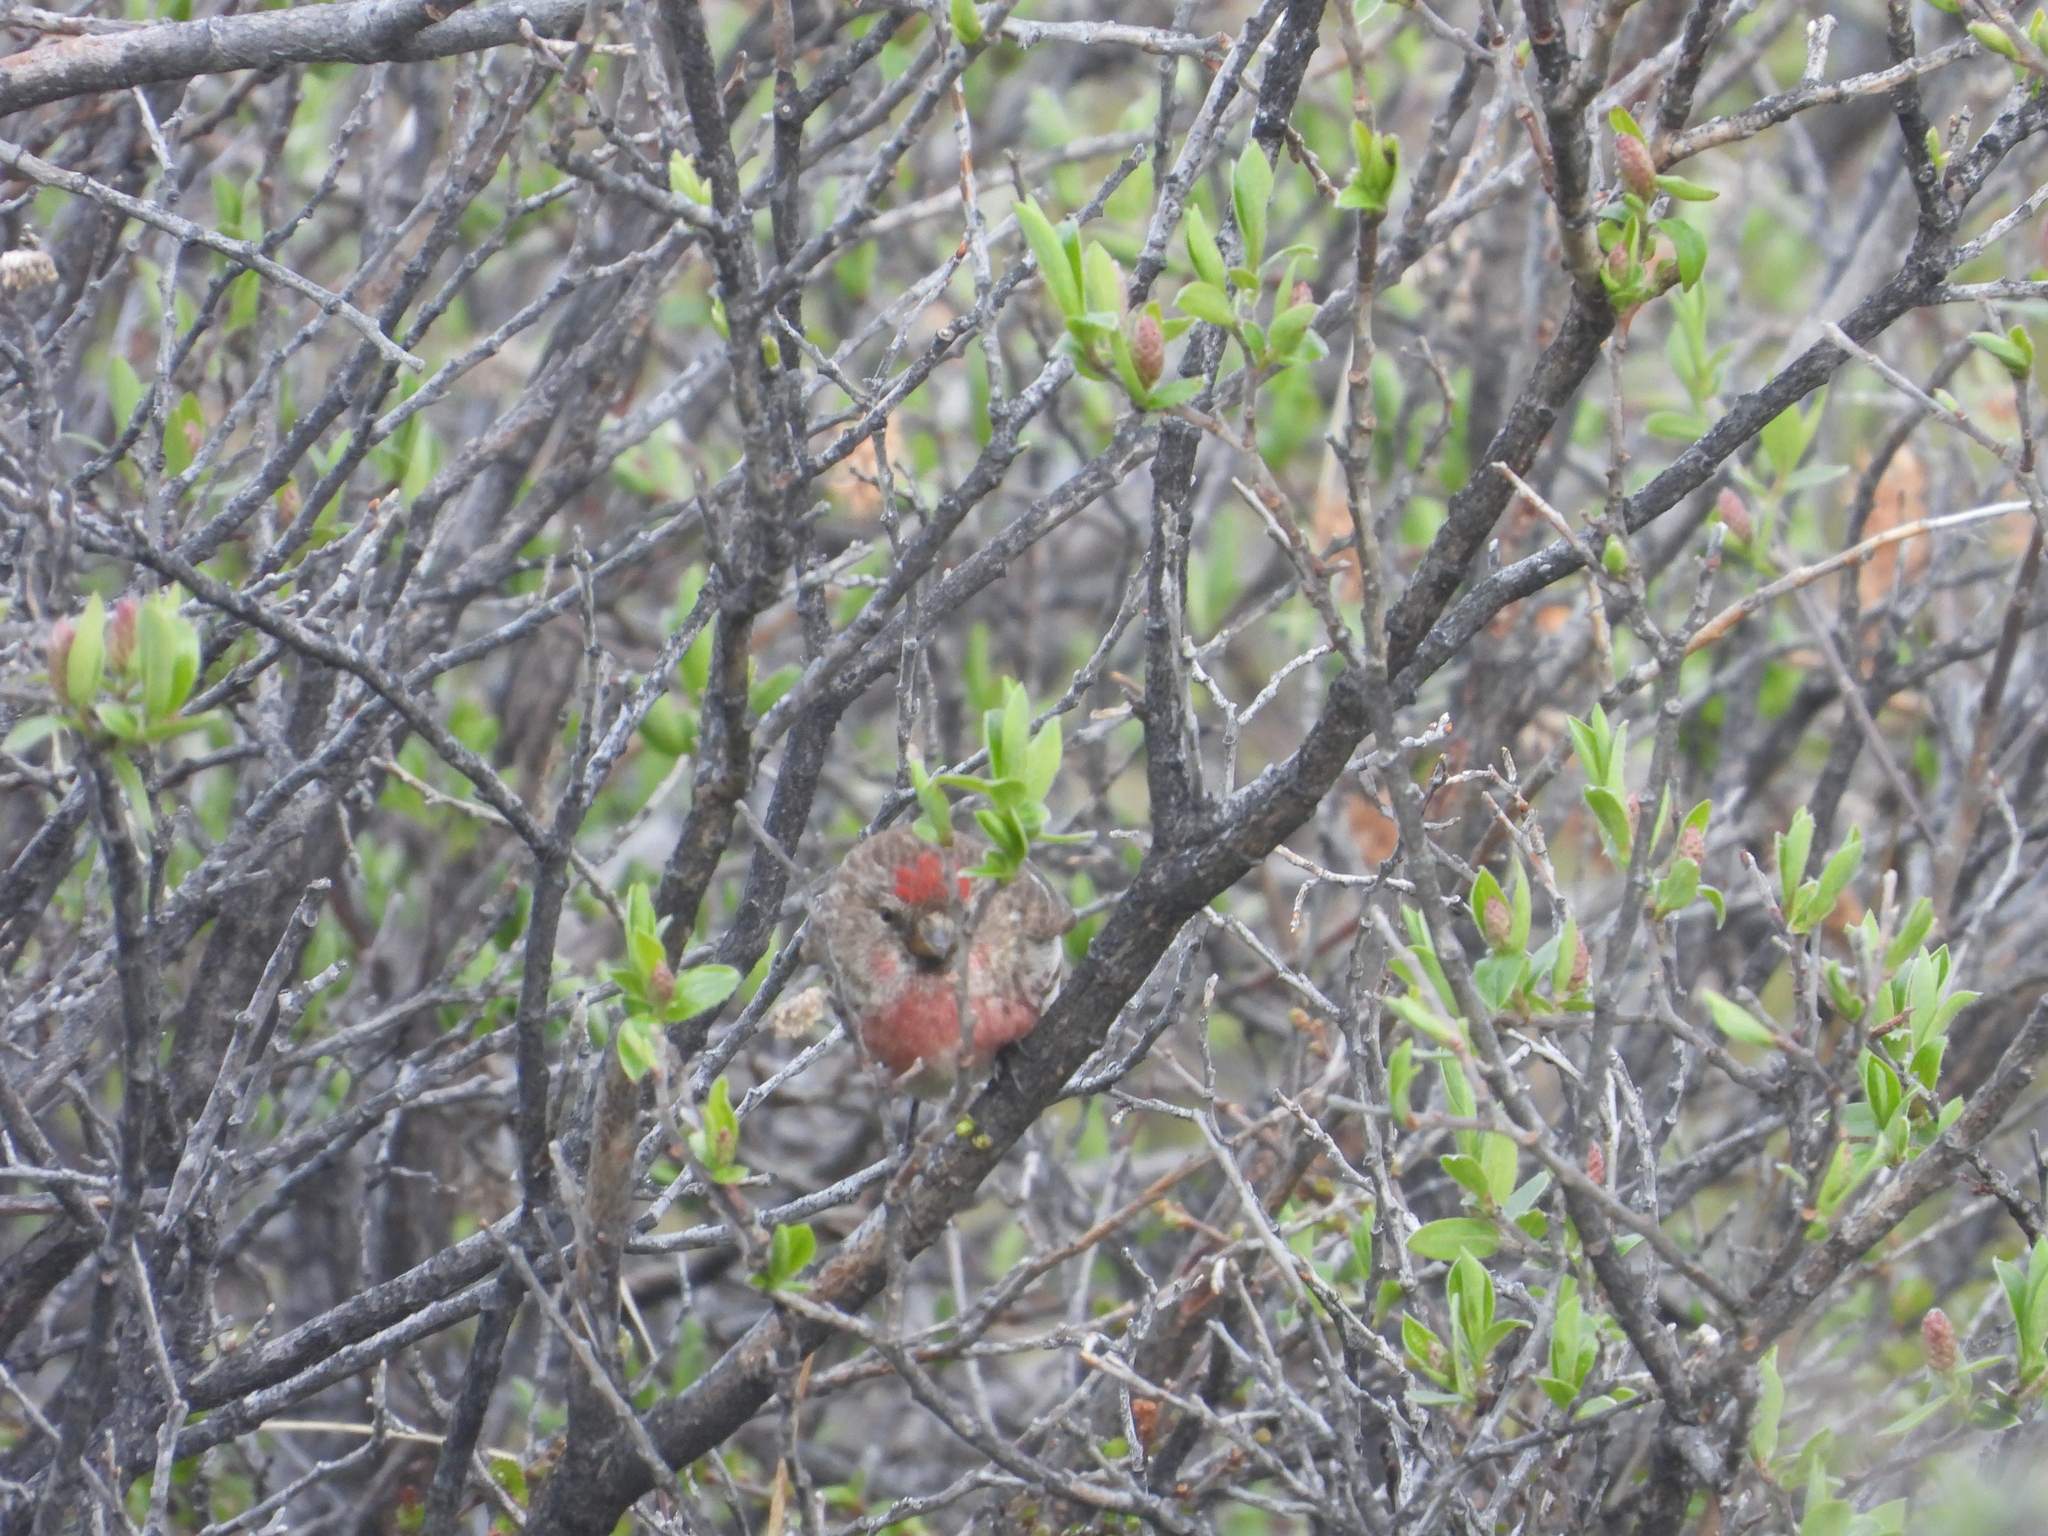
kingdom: Animalia
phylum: Chordata
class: Aves
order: Passeriformes
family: Fringillidae
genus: Acanthis
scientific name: Acanthis flammea
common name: Common redpoll
